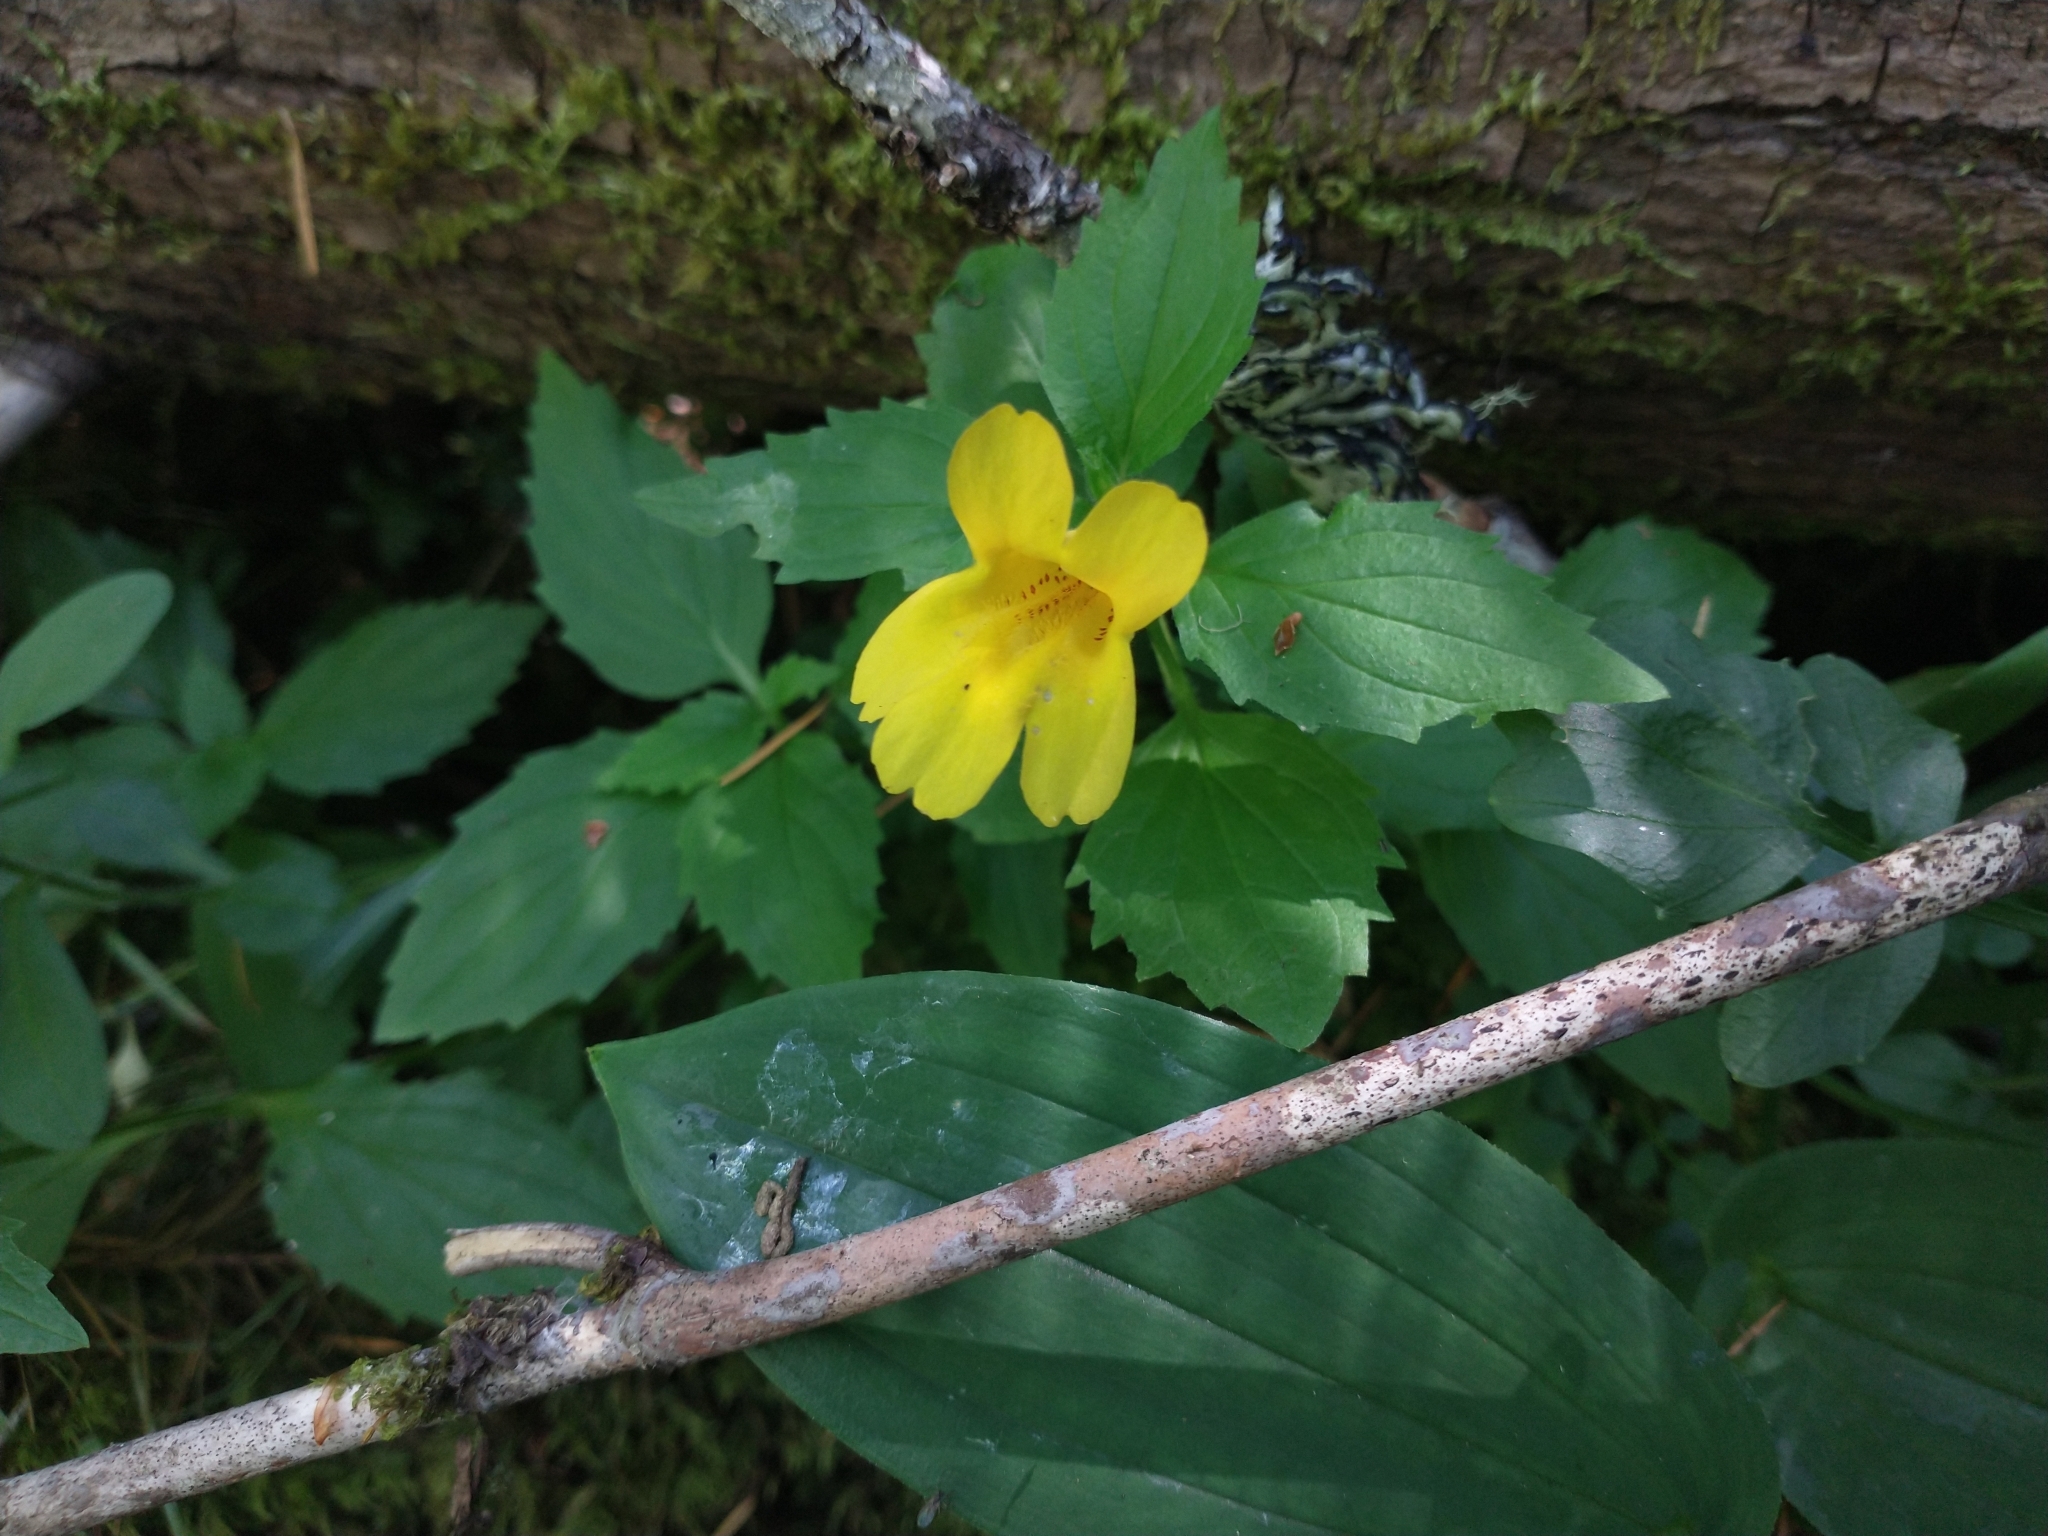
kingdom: Plantae
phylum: Tracheophyta
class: Magnoliopsida
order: Lamiales
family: Phrymaceae
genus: Erythranthe
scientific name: Erythranthe dentata
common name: Coastal monkeyflower
